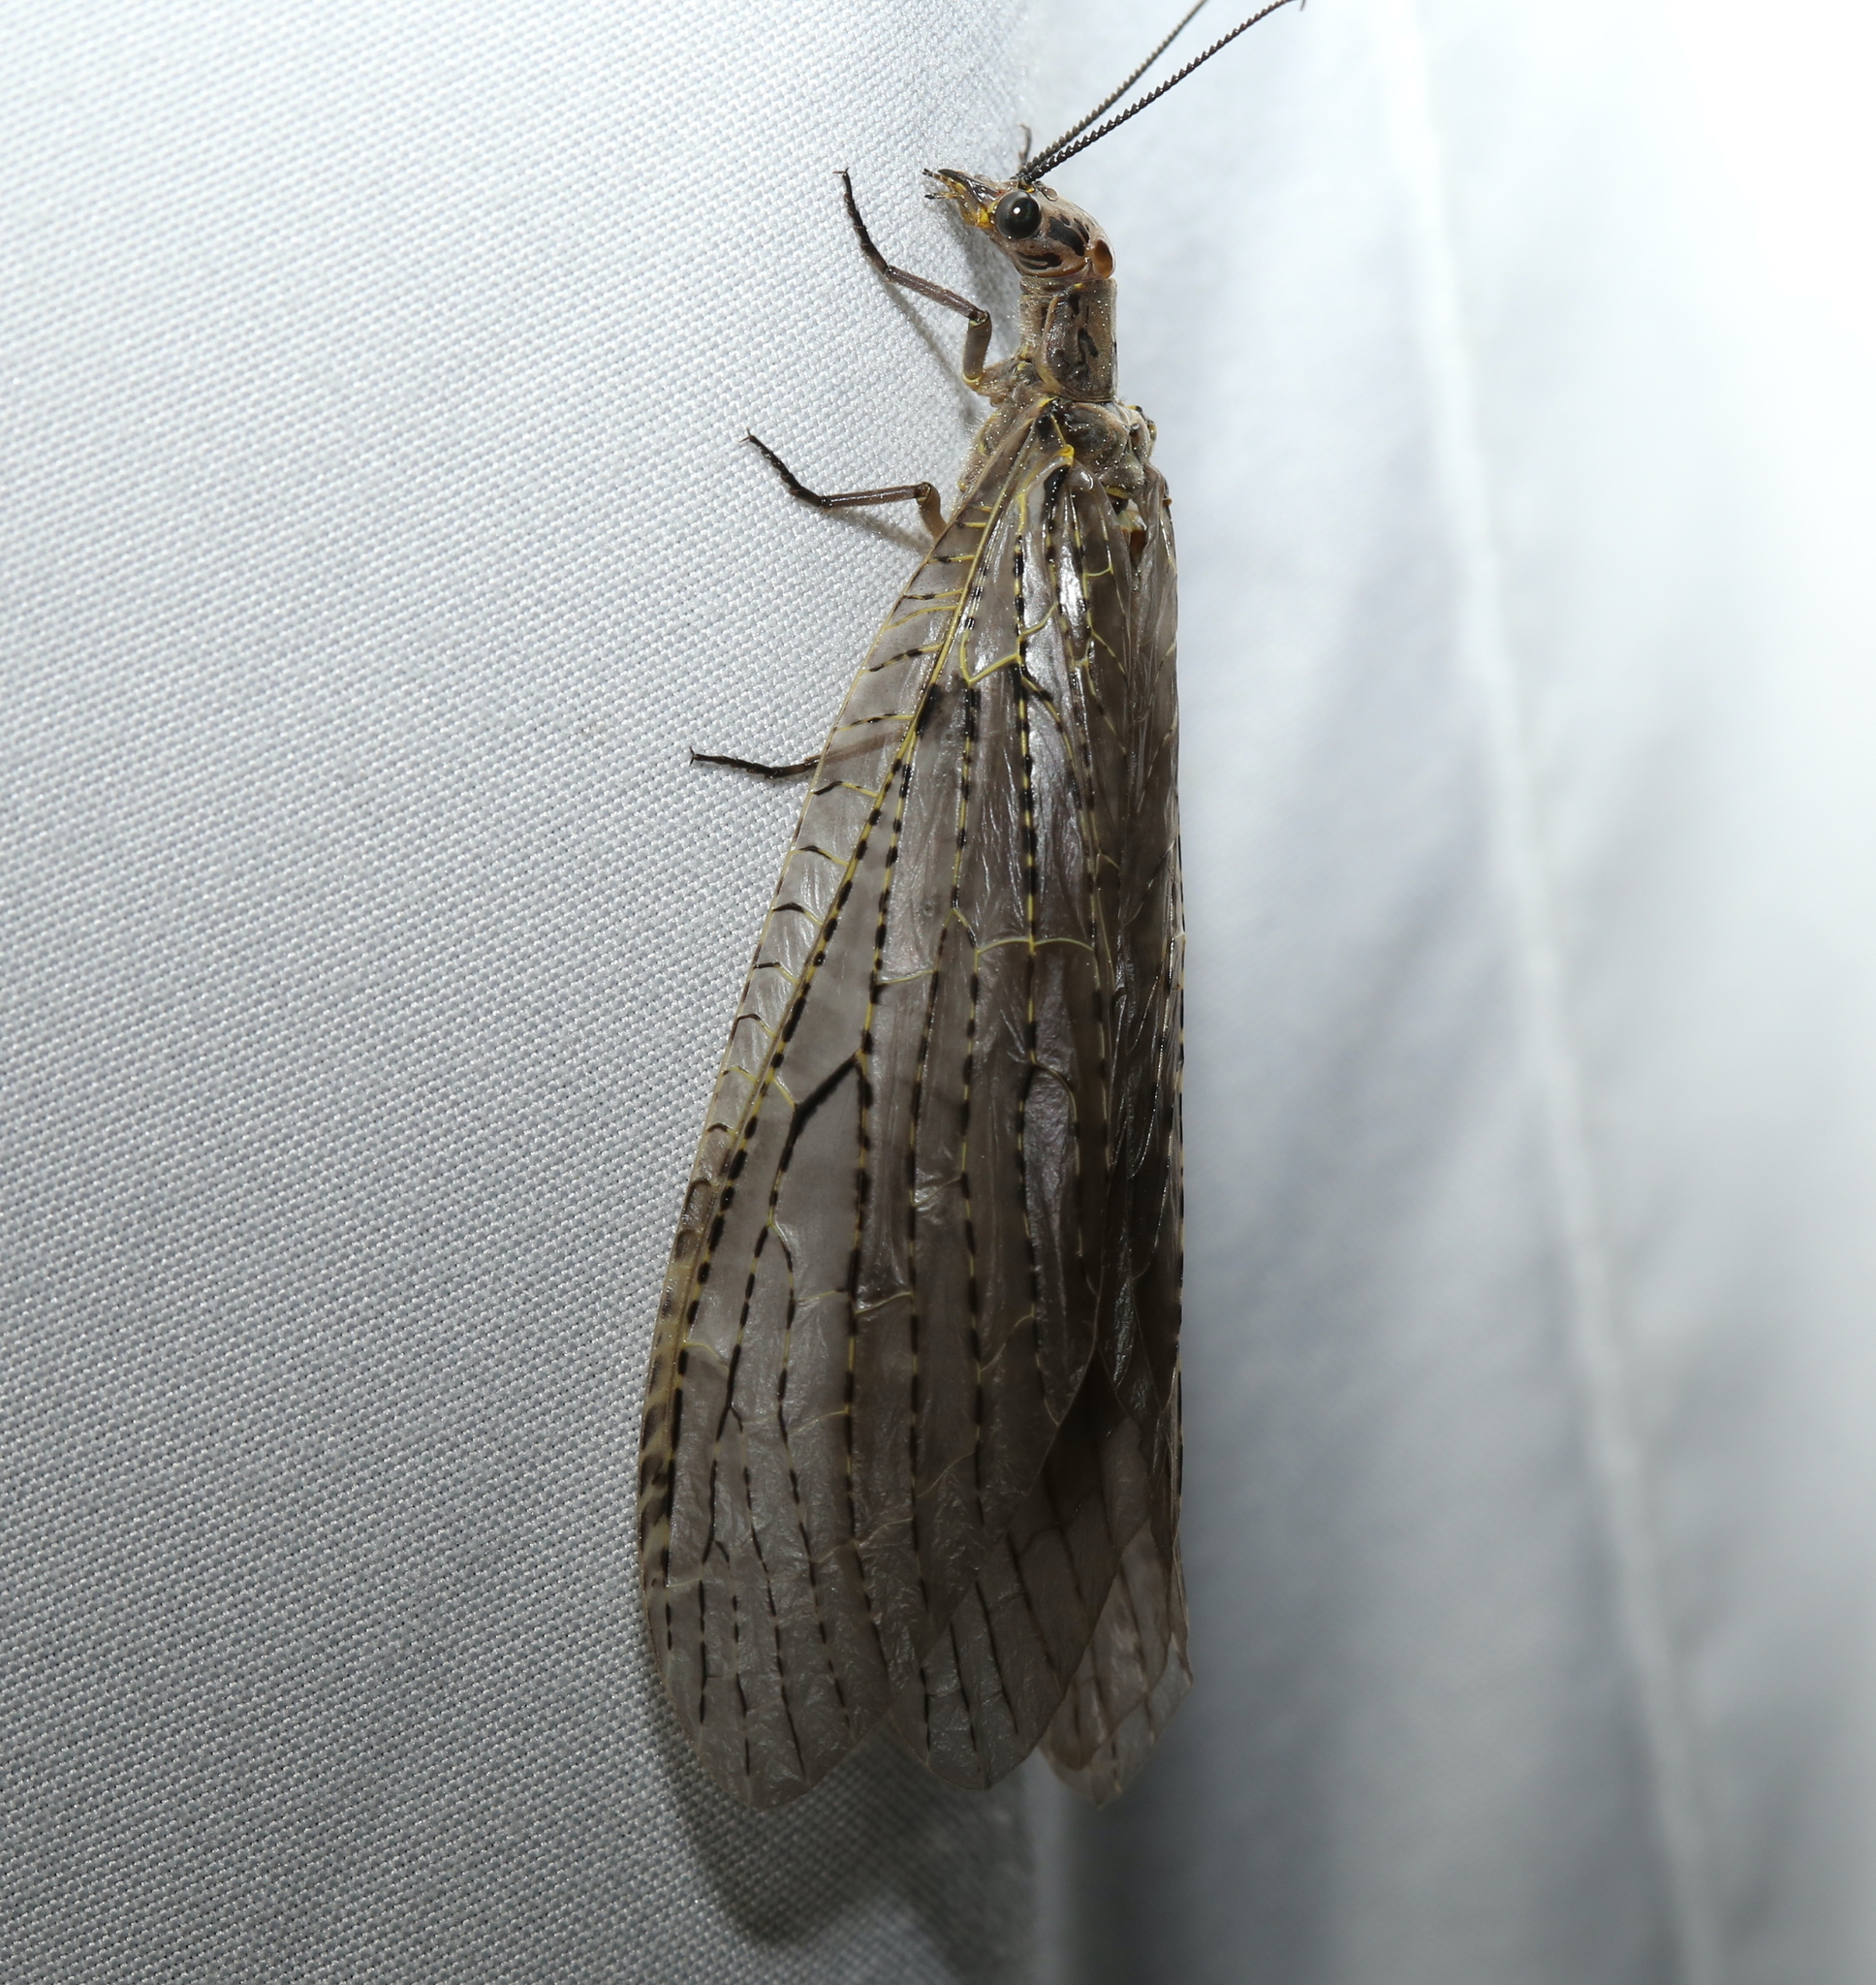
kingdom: Animalia
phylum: Arthropoda
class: Insecta
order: Megaloptera
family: Corydalidae
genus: Chauliodes
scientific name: Chauliodes rastricornis
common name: Spring fishfly
